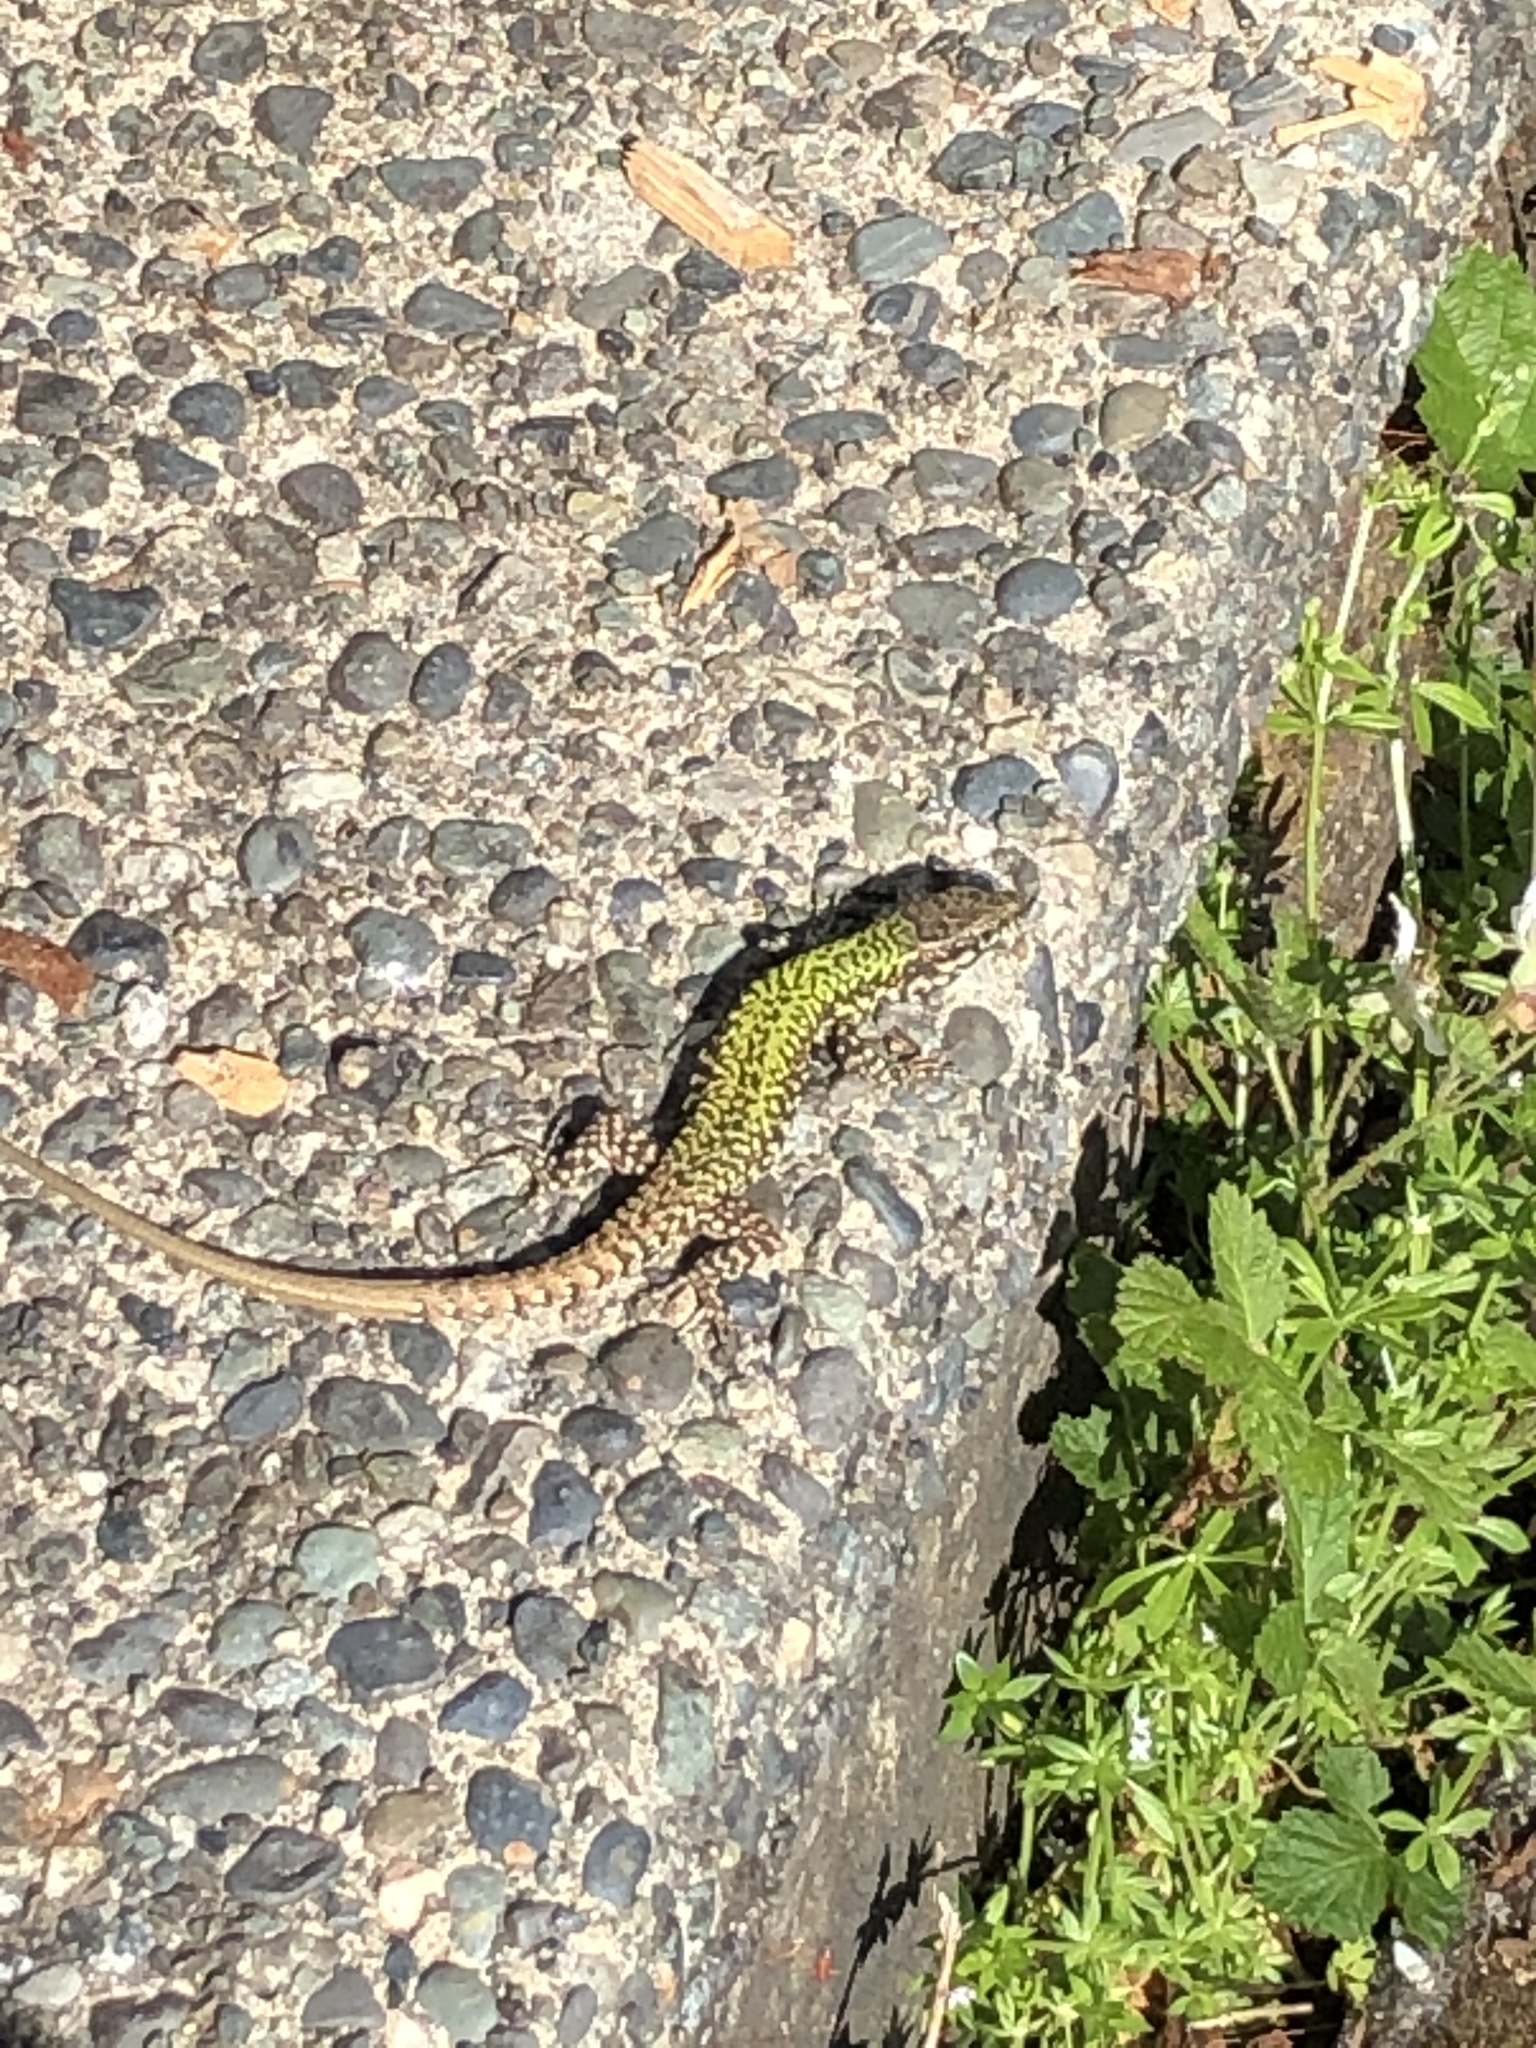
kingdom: Animalia
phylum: Chordata
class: Squamata
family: Lacertidae
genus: Podarcis
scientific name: Podarcis muralis
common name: Common wall lizard
